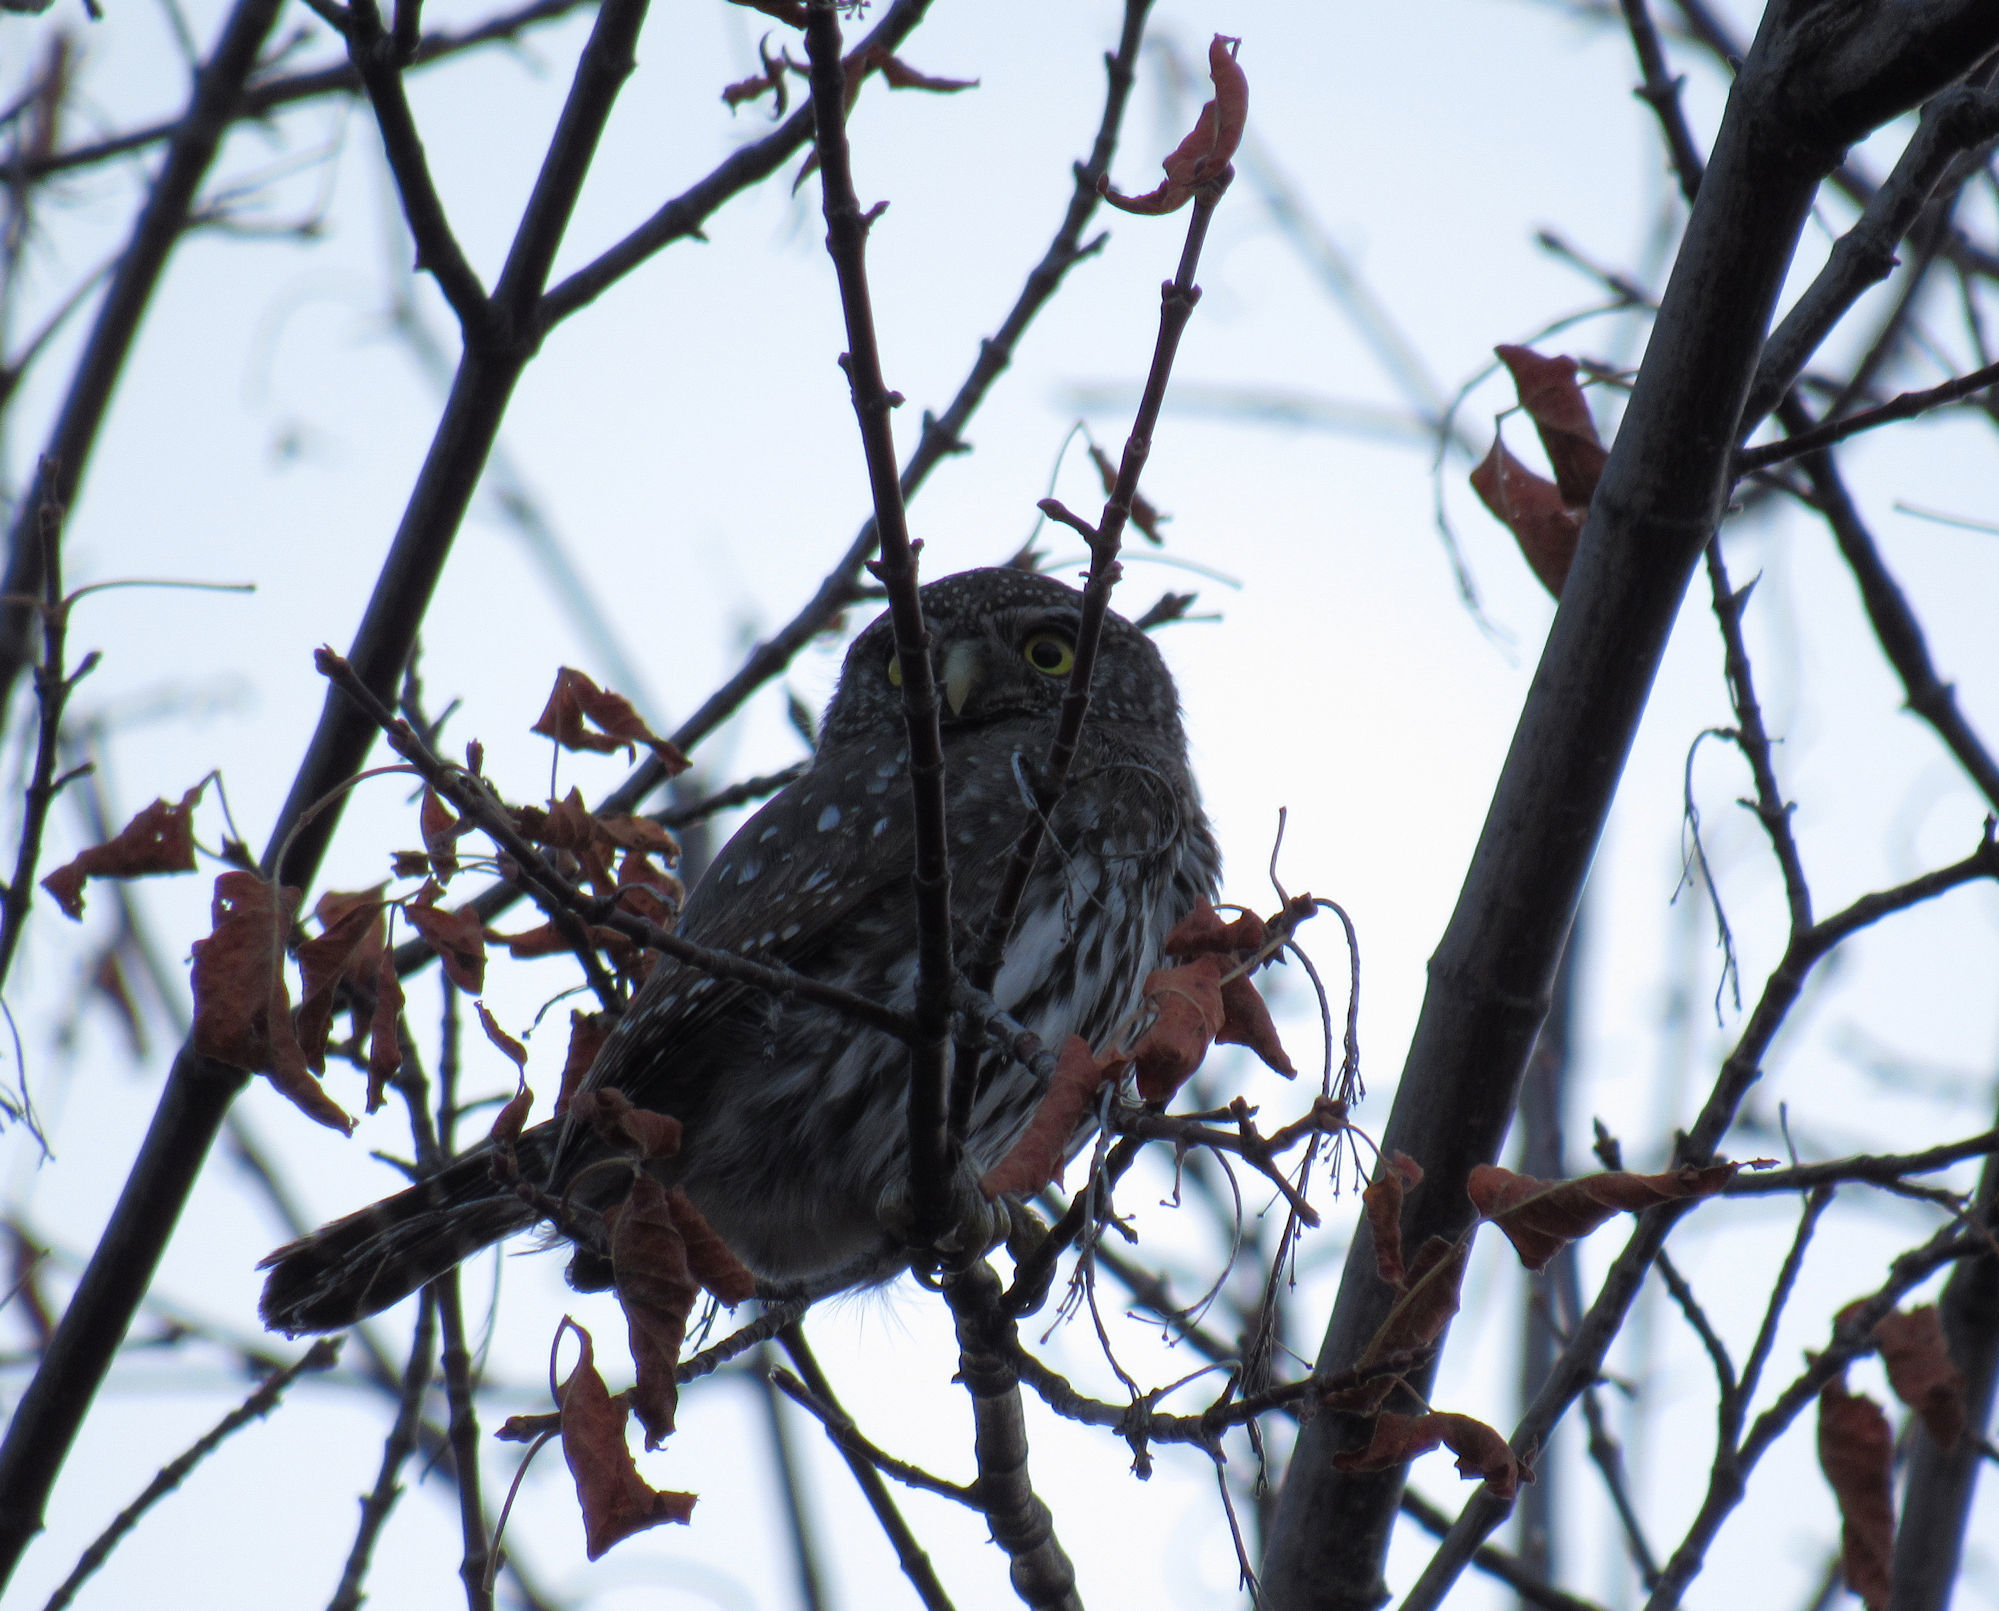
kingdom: Animalia
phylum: Chordata
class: Aves
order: Strigiformes
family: Strigidae
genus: Glaucidium
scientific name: Glaucidium gnoma
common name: Northern pygmy-owl
